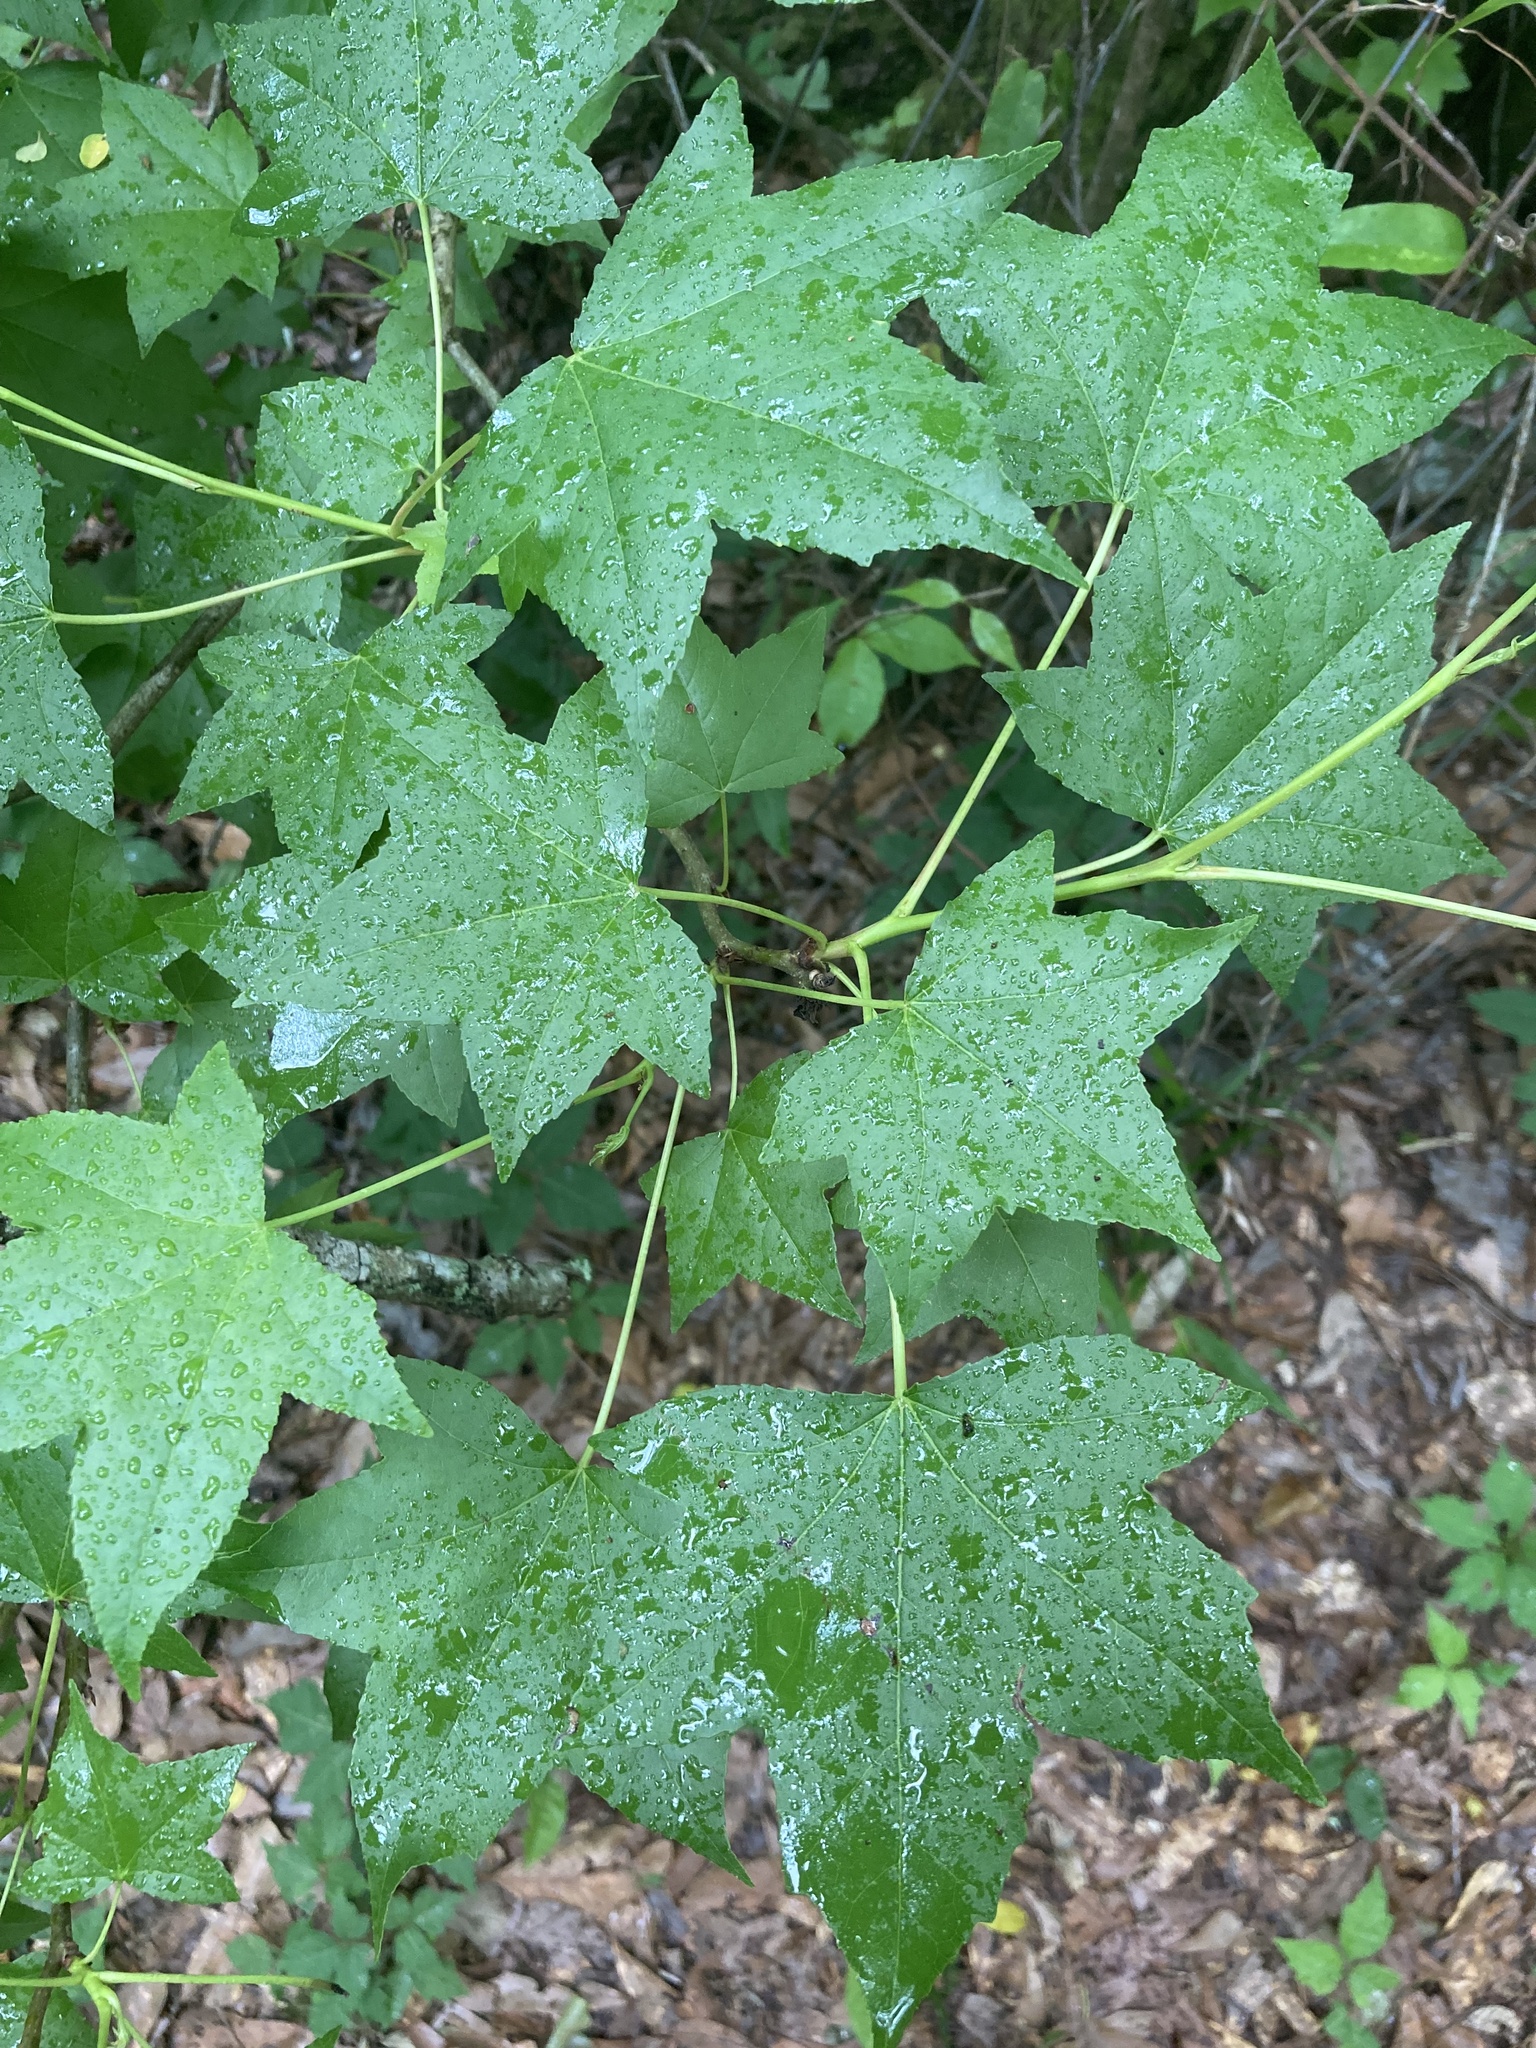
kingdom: Plantae
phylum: Tracheophyta
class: Magnoliopsida
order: Saxifragales
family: Altingiaceae
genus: Liquidambar
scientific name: Liquidambar styraciflua
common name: Sweet gum
